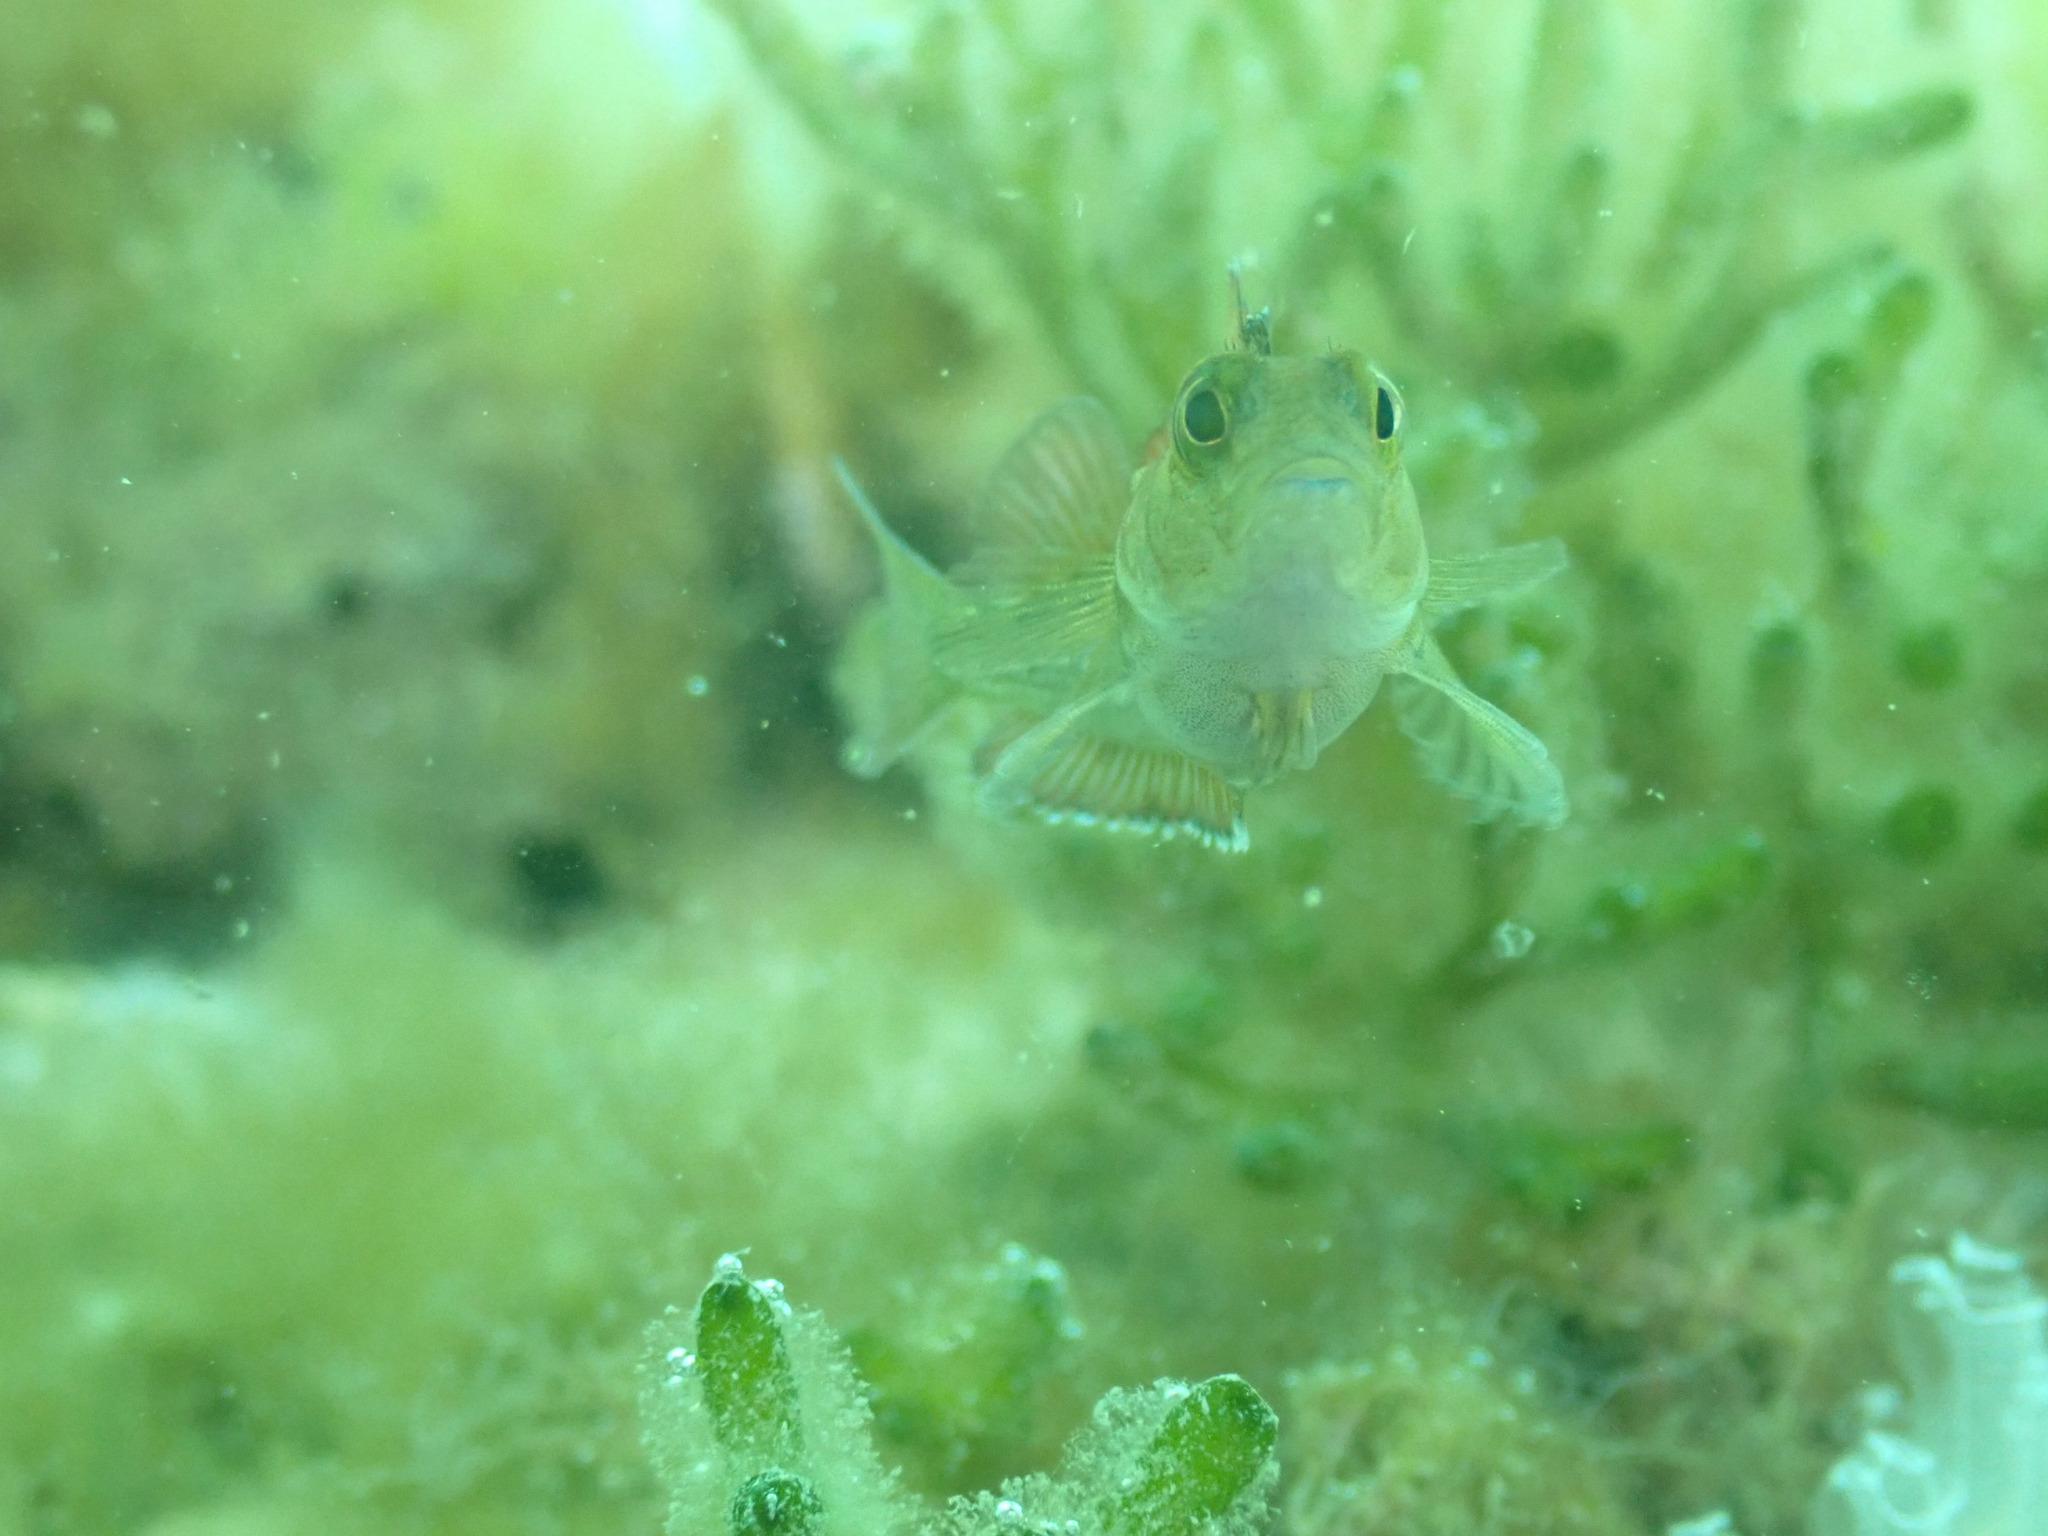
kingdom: Animalia
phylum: Chordata
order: Perciformes
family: Tripterygiidae
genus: Forsterygion
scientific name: Forsterygion lapillum
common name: Common triplefin
